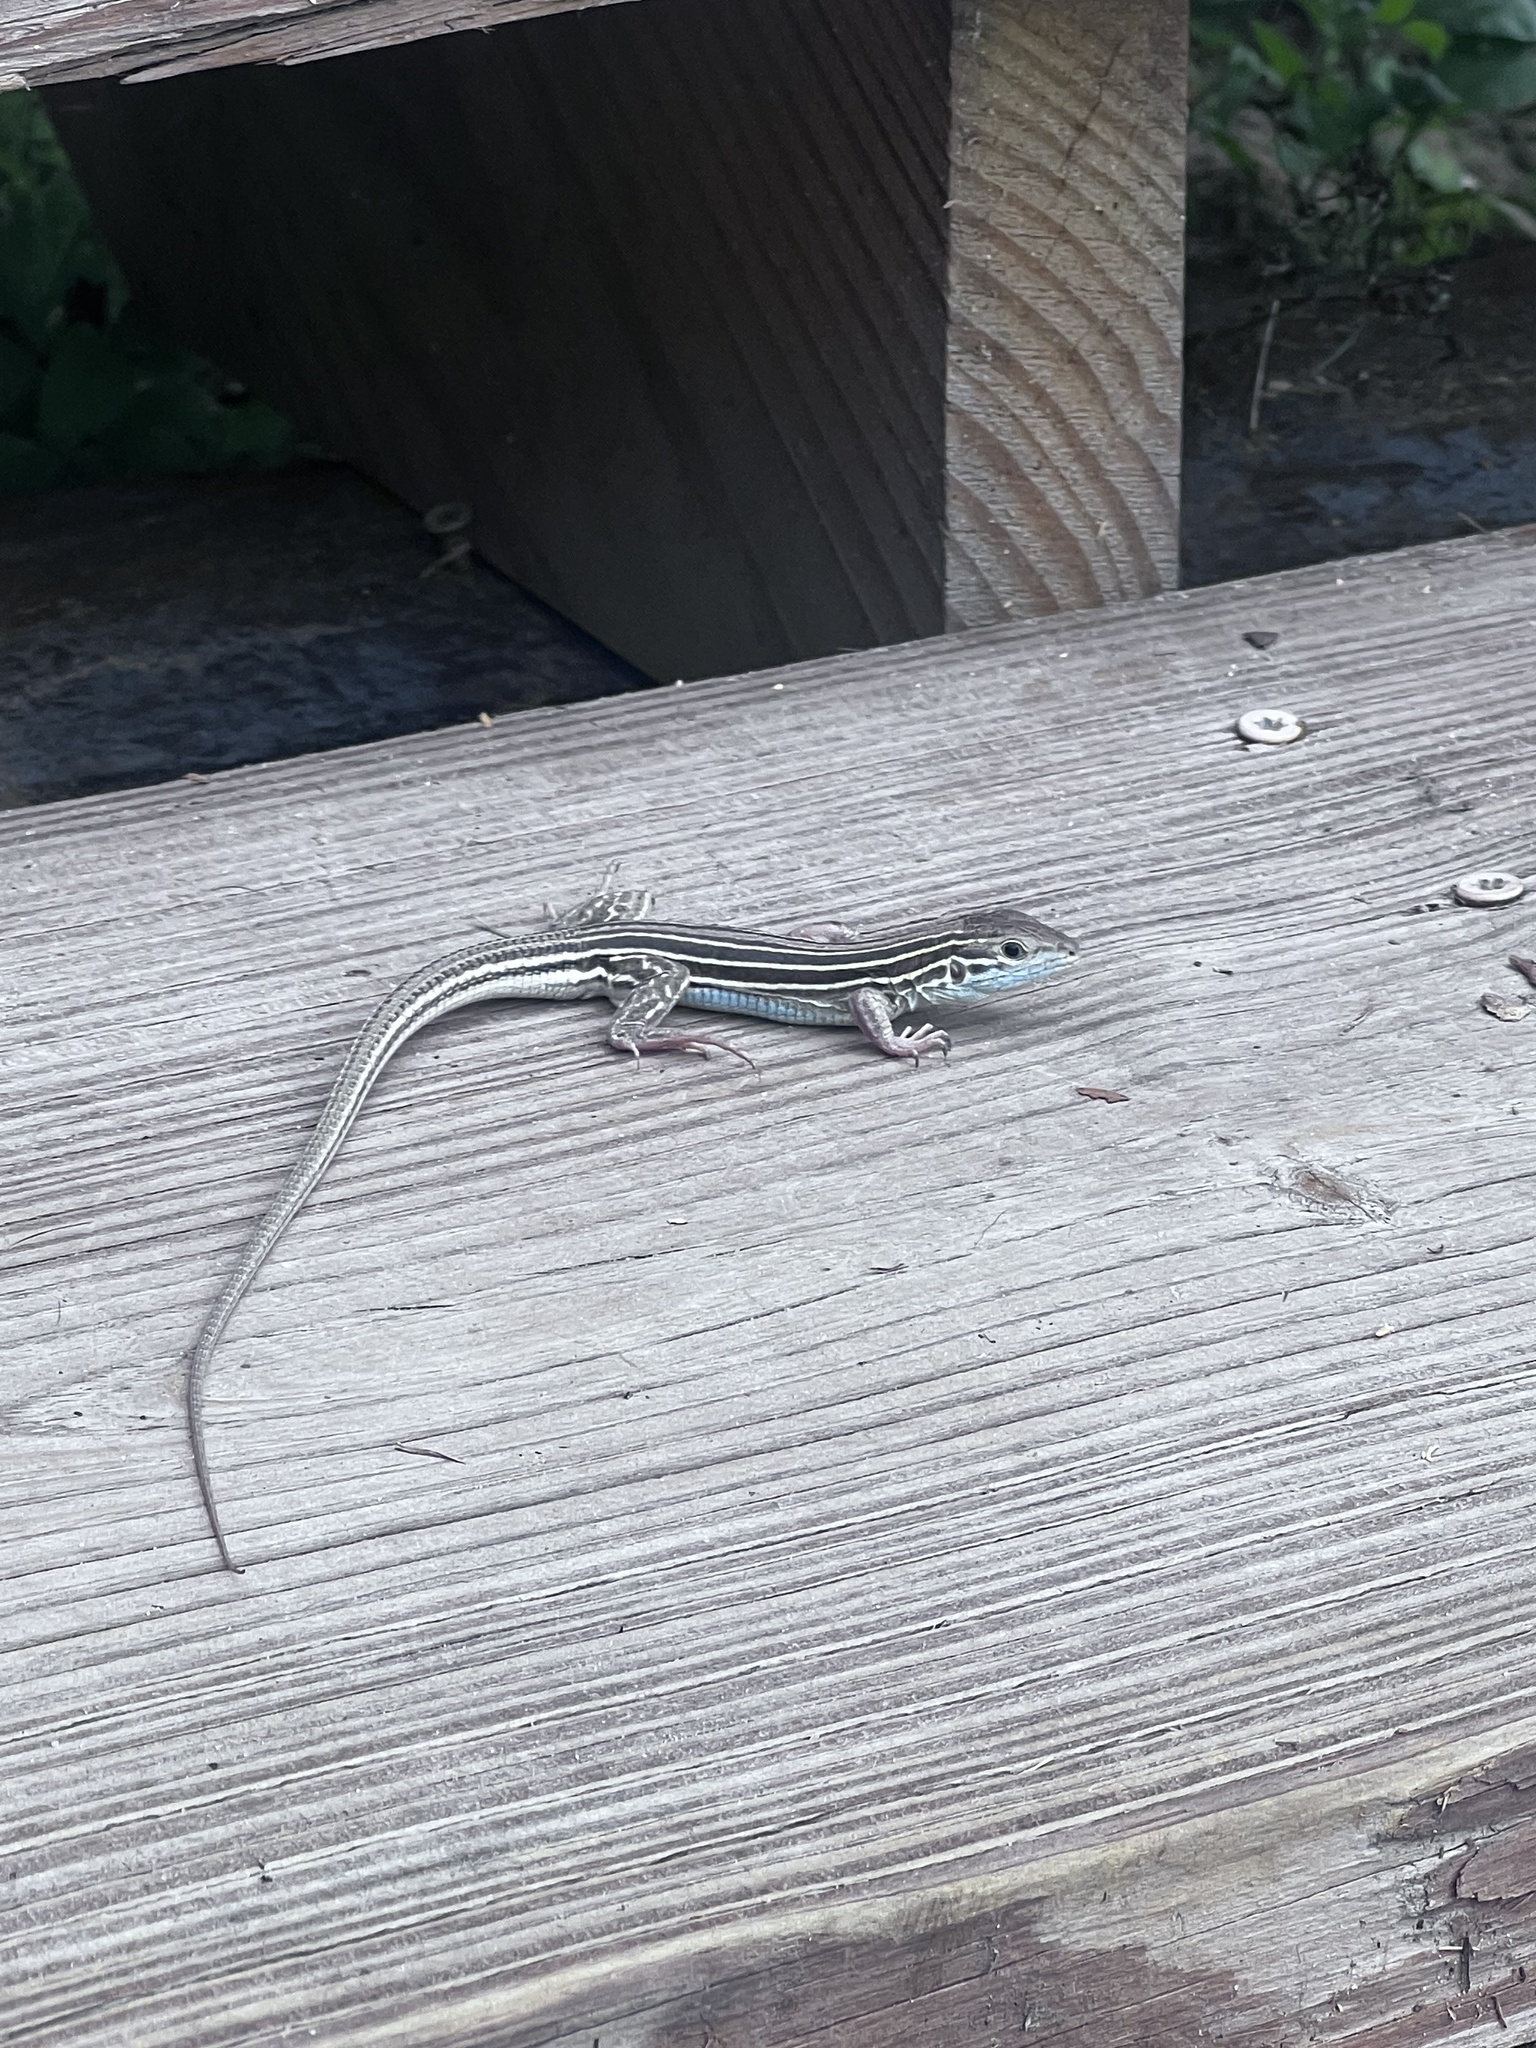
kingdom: Animalia
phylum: Chordata
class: Squamata
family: Teiidae
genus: Aspidoscelis
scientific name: Aspidoscelis sexlineatus
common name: Six-lined racerunner
